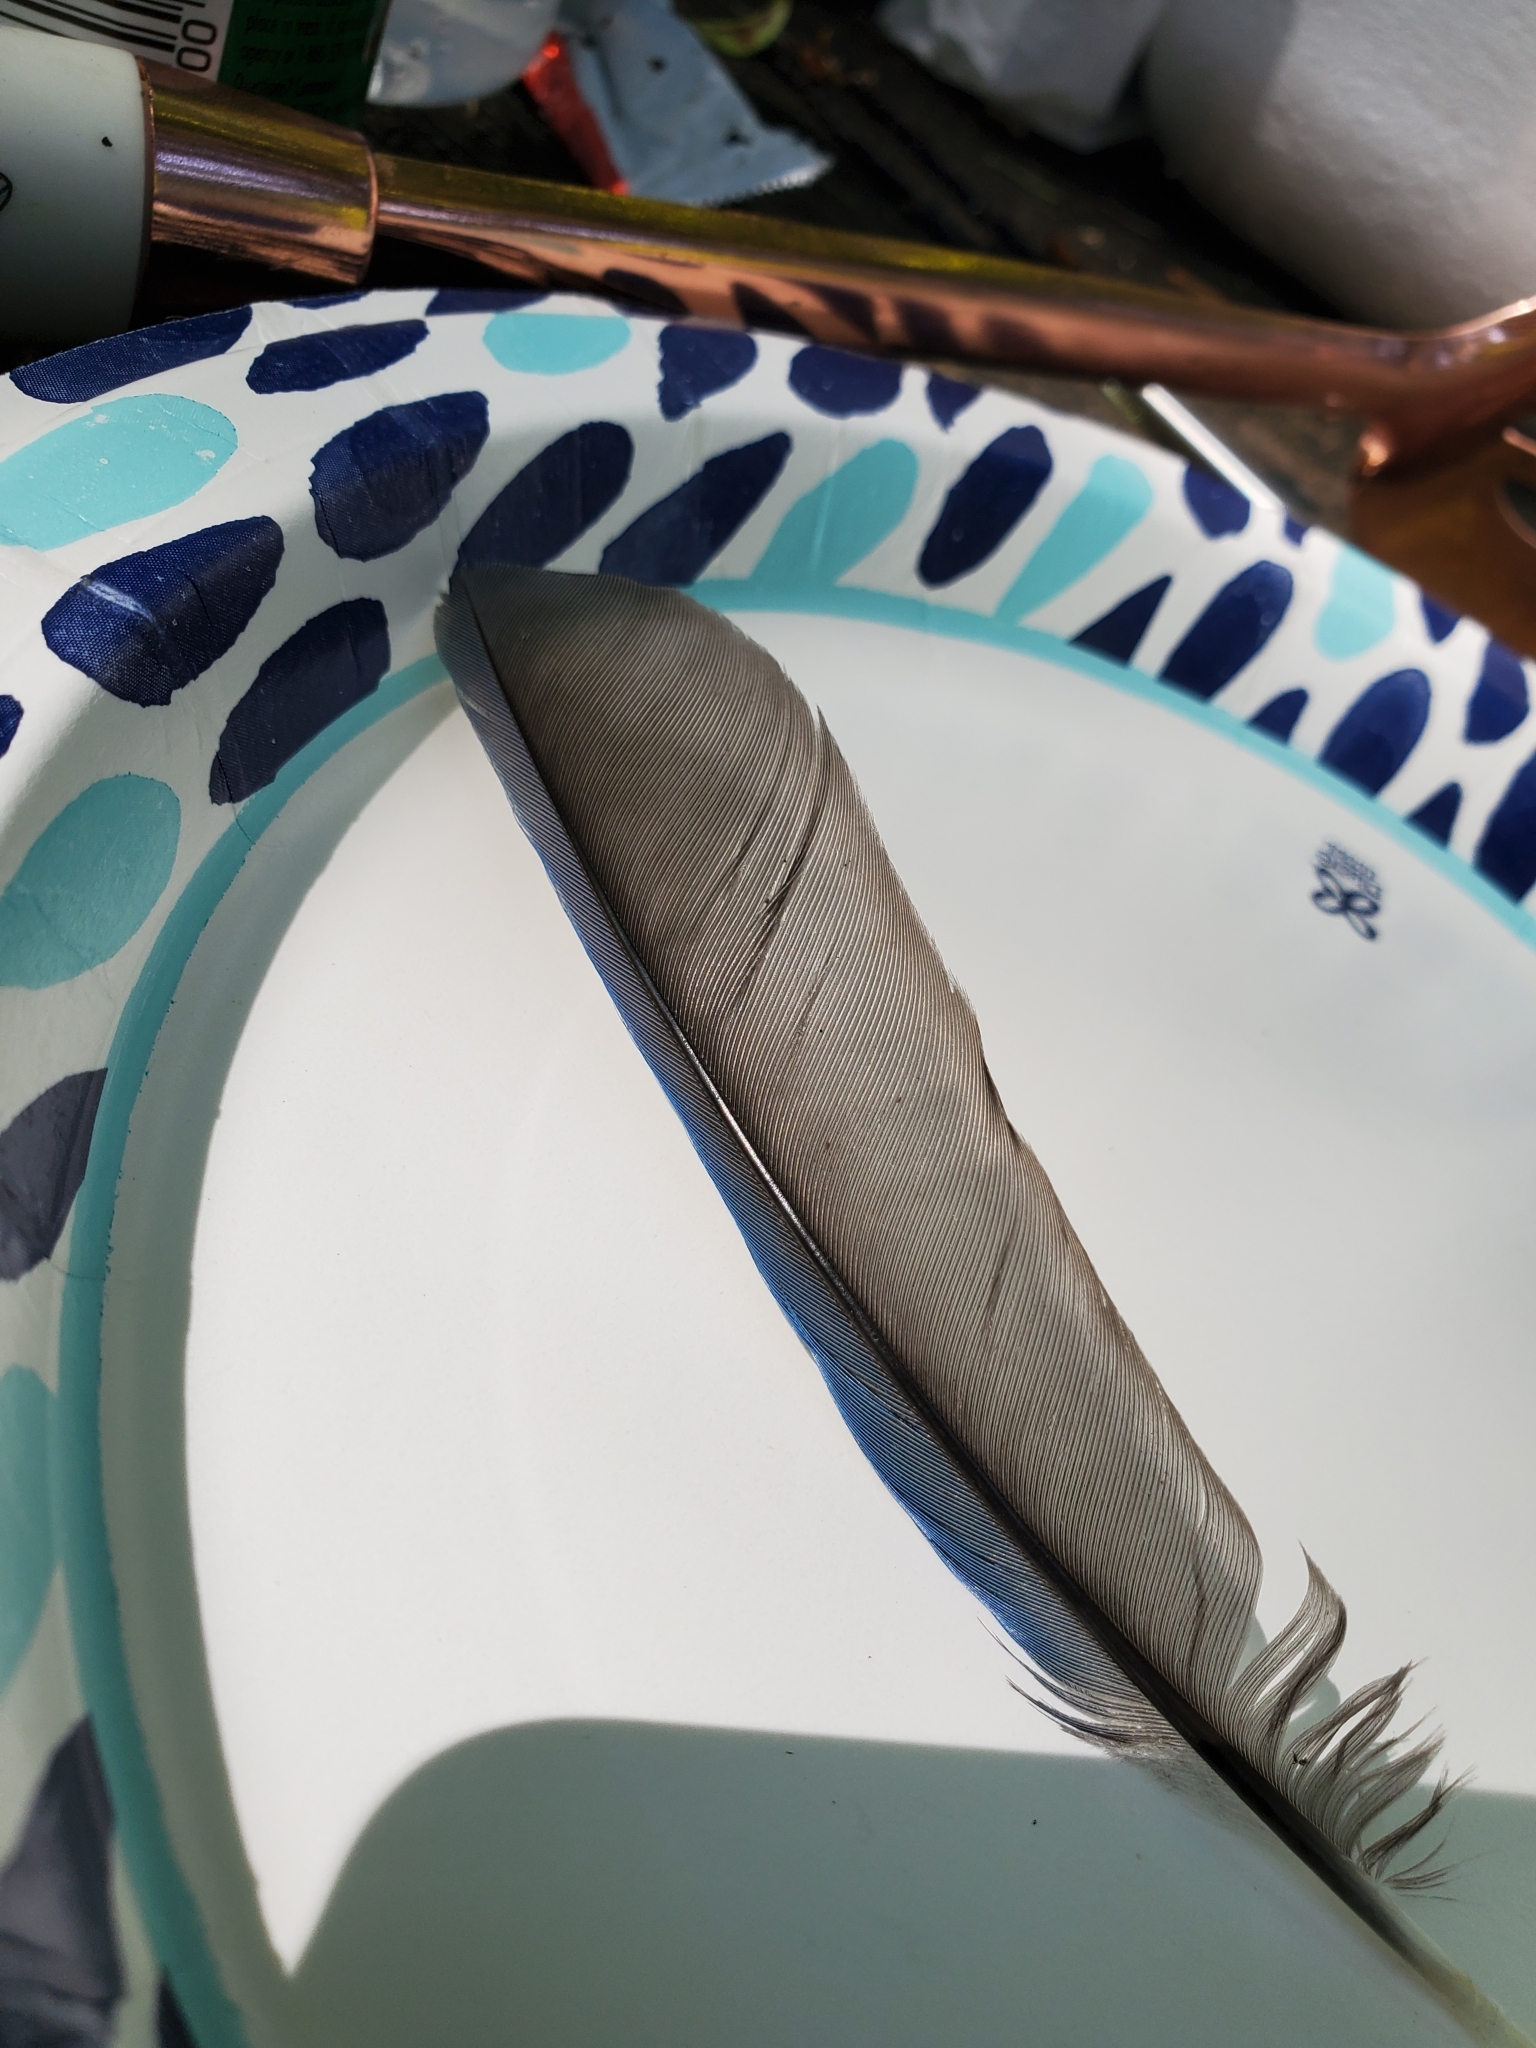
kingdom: Animalia
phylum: Chordata
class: Aves
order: Passeriformes
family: Corvidae
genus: Cyanocitta
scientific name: Cyanocitta stelleri
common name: Steller's jay
